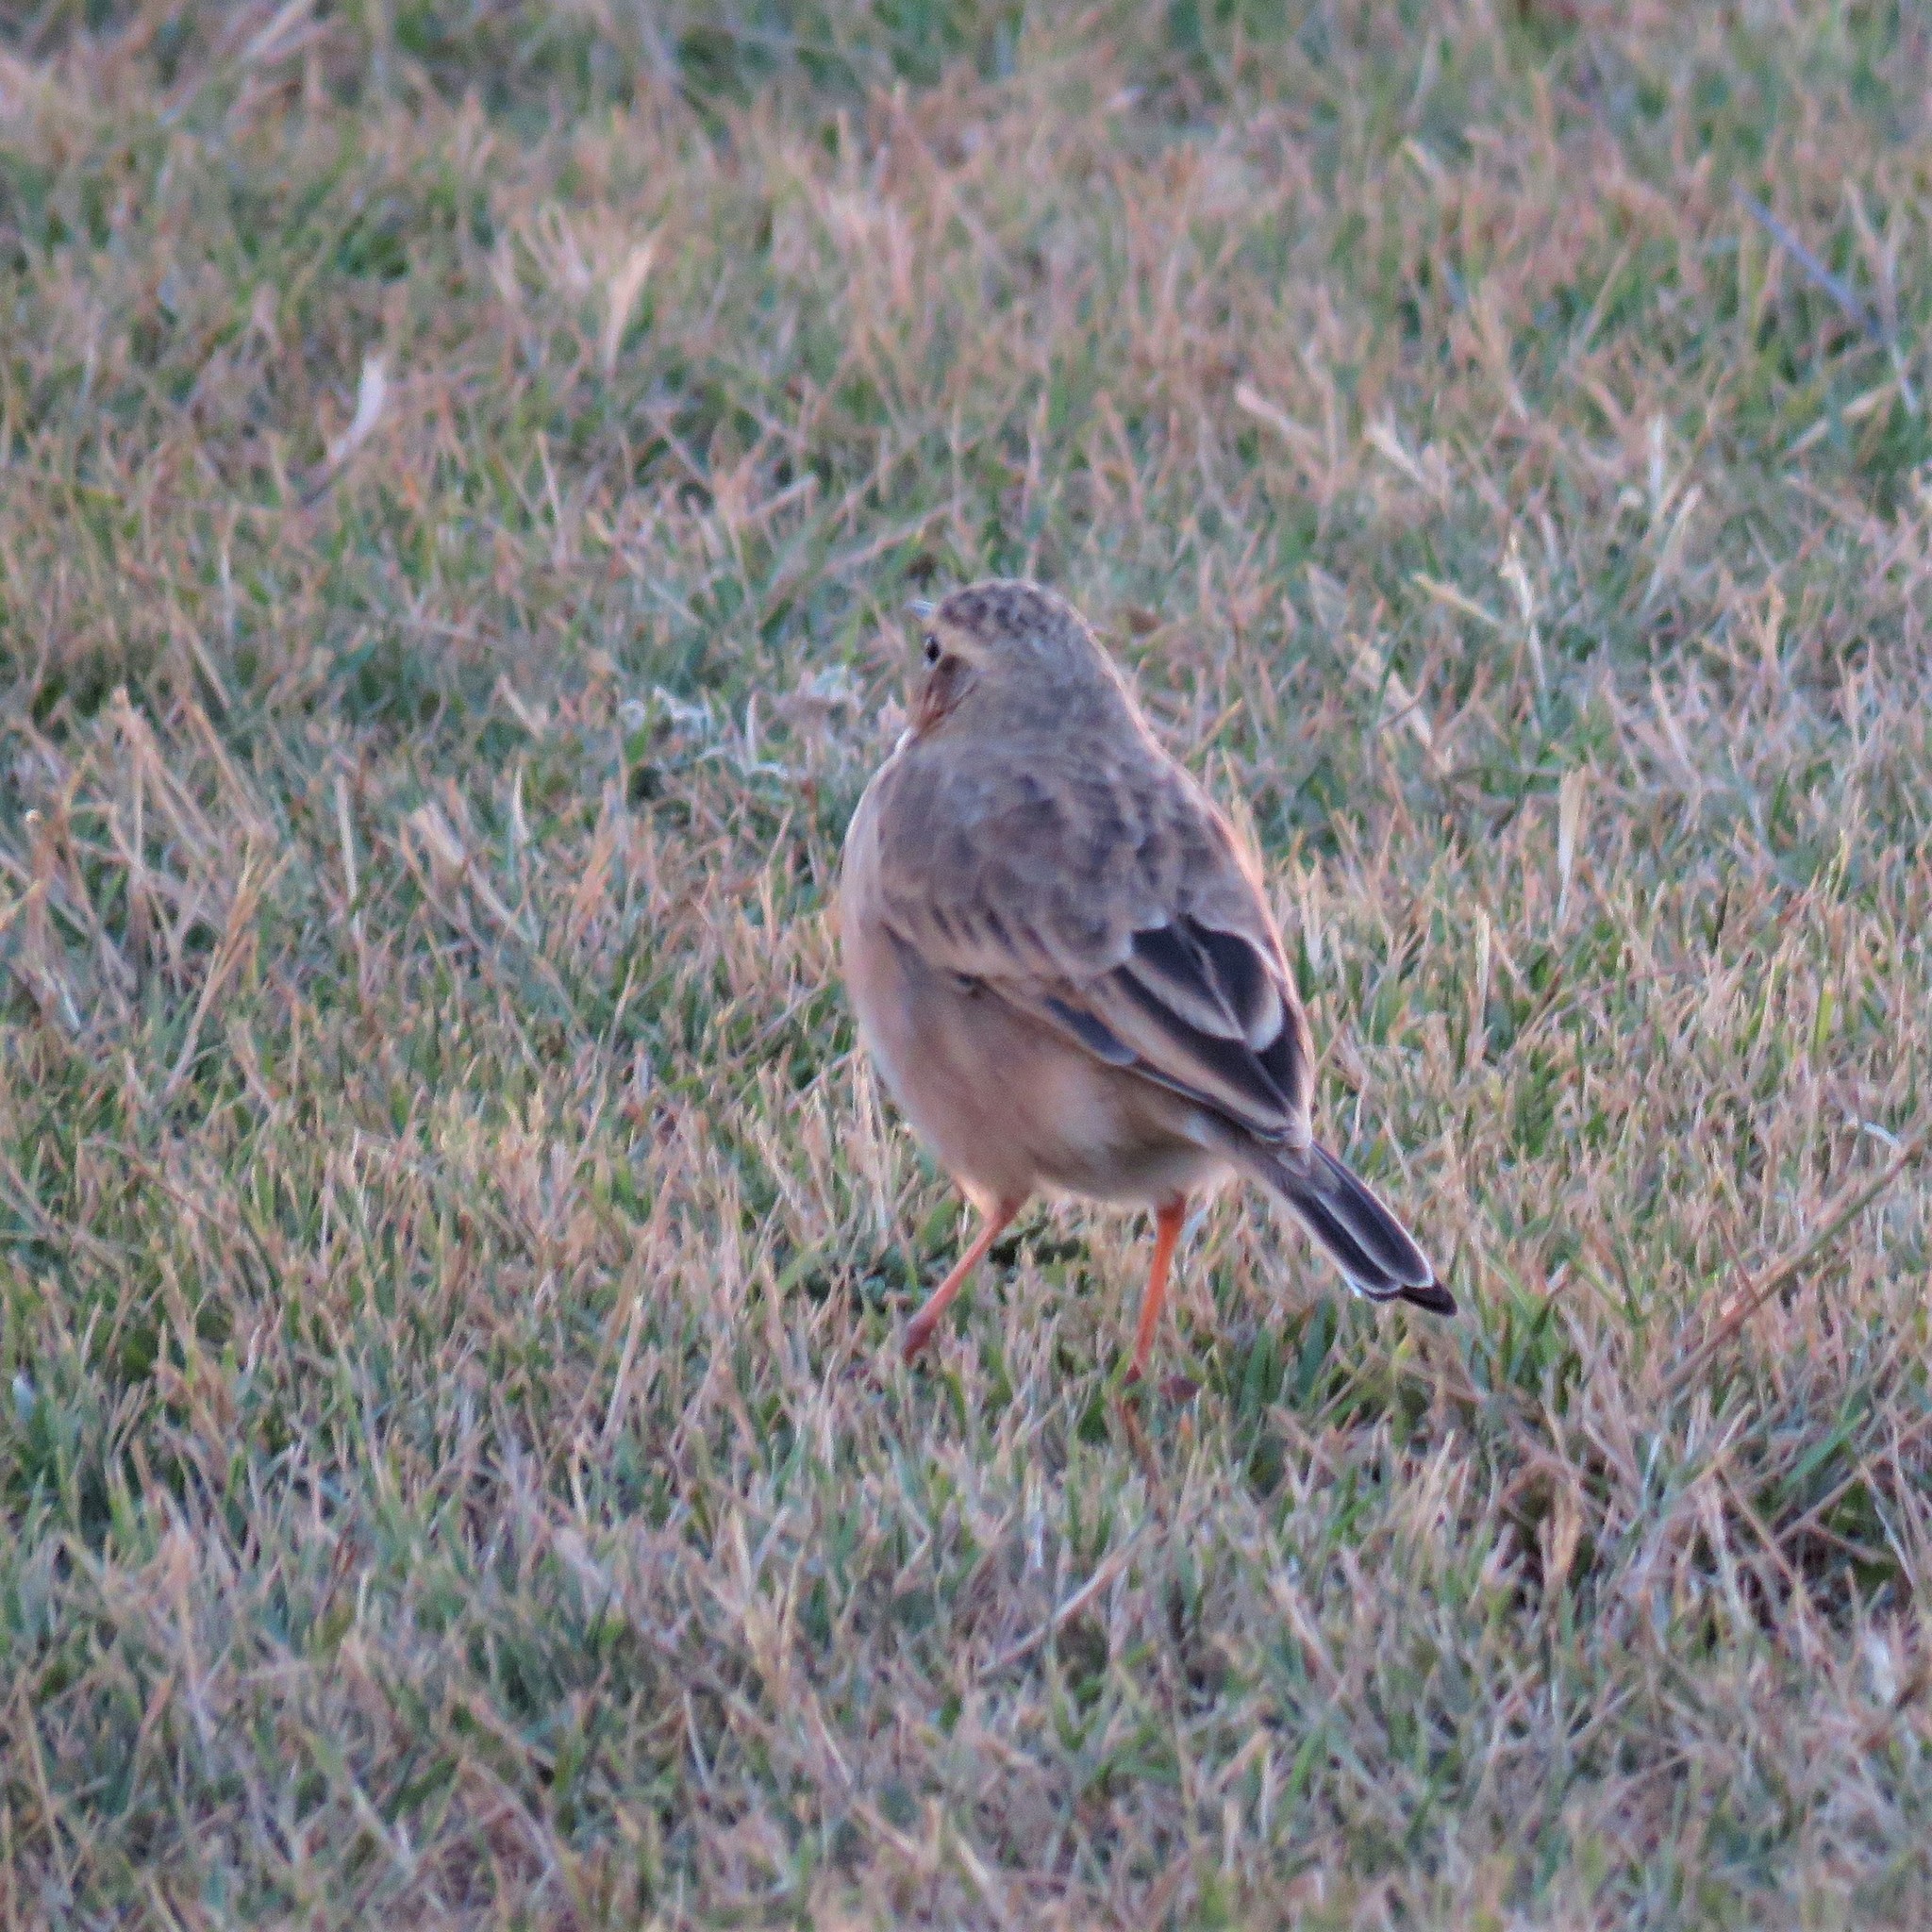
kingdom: Animalia
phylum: Chordata
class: Aves
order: Passeriformes
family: Motacillidae
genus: Anthus
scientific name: Anthus cinnamomeus
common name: African pipit
